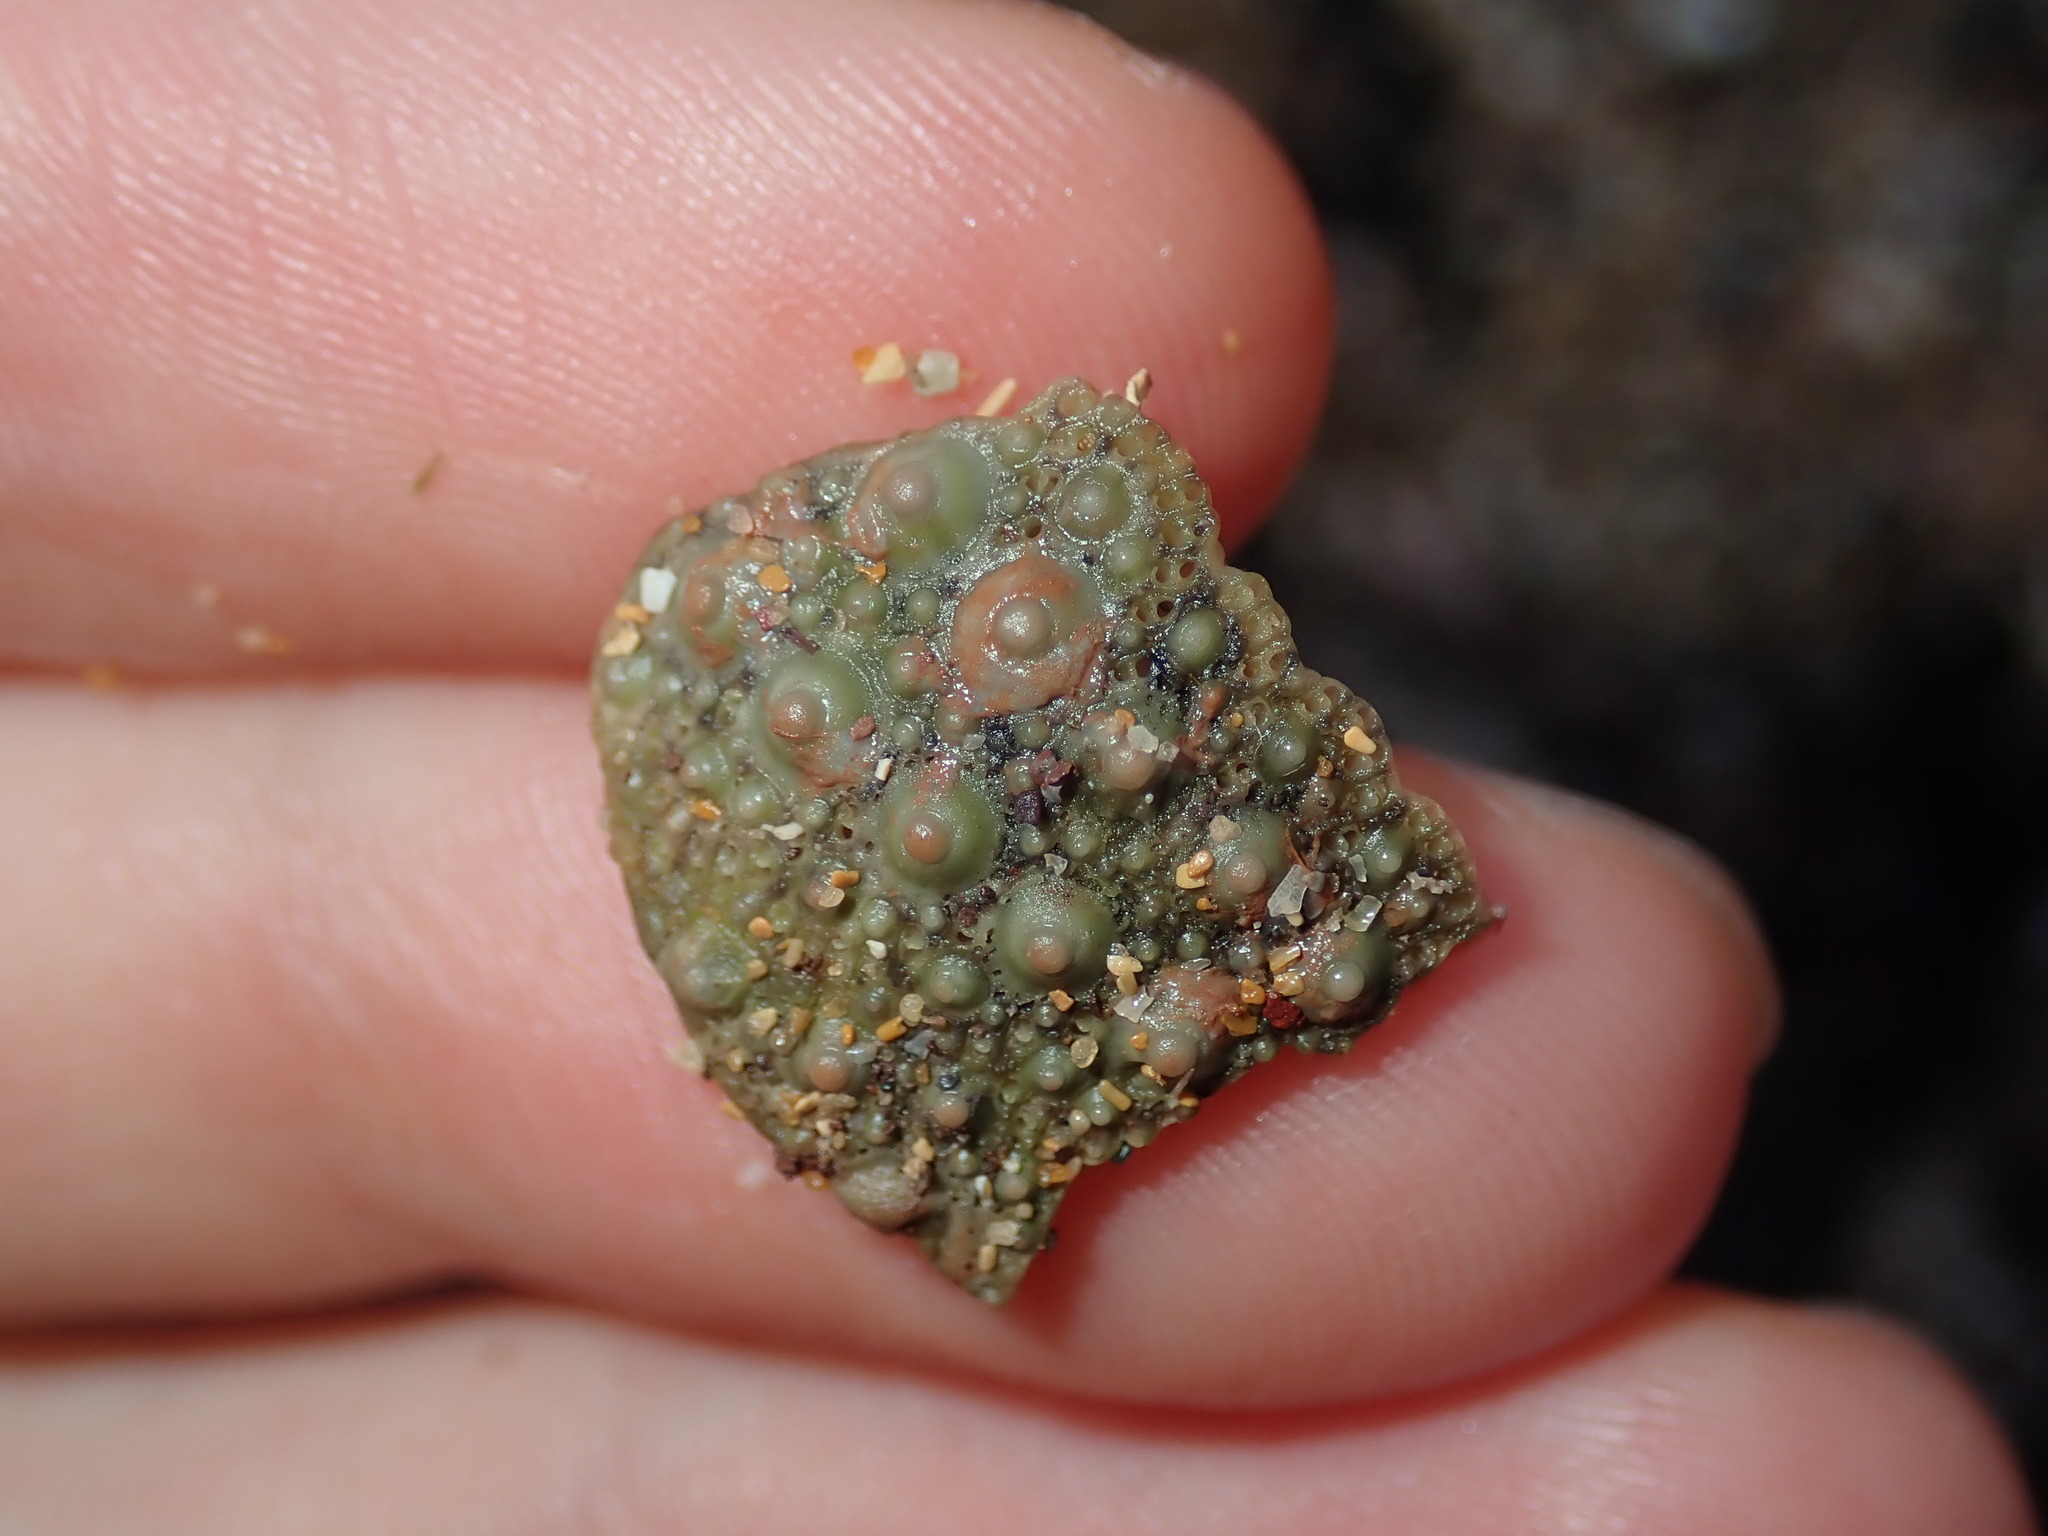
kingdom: Animalia
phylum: Echinodermata
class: Echinoidea
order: Camarodonta
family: Echinometridae
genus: Heliocidaris
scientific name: Heliocidaris erythrogramma
